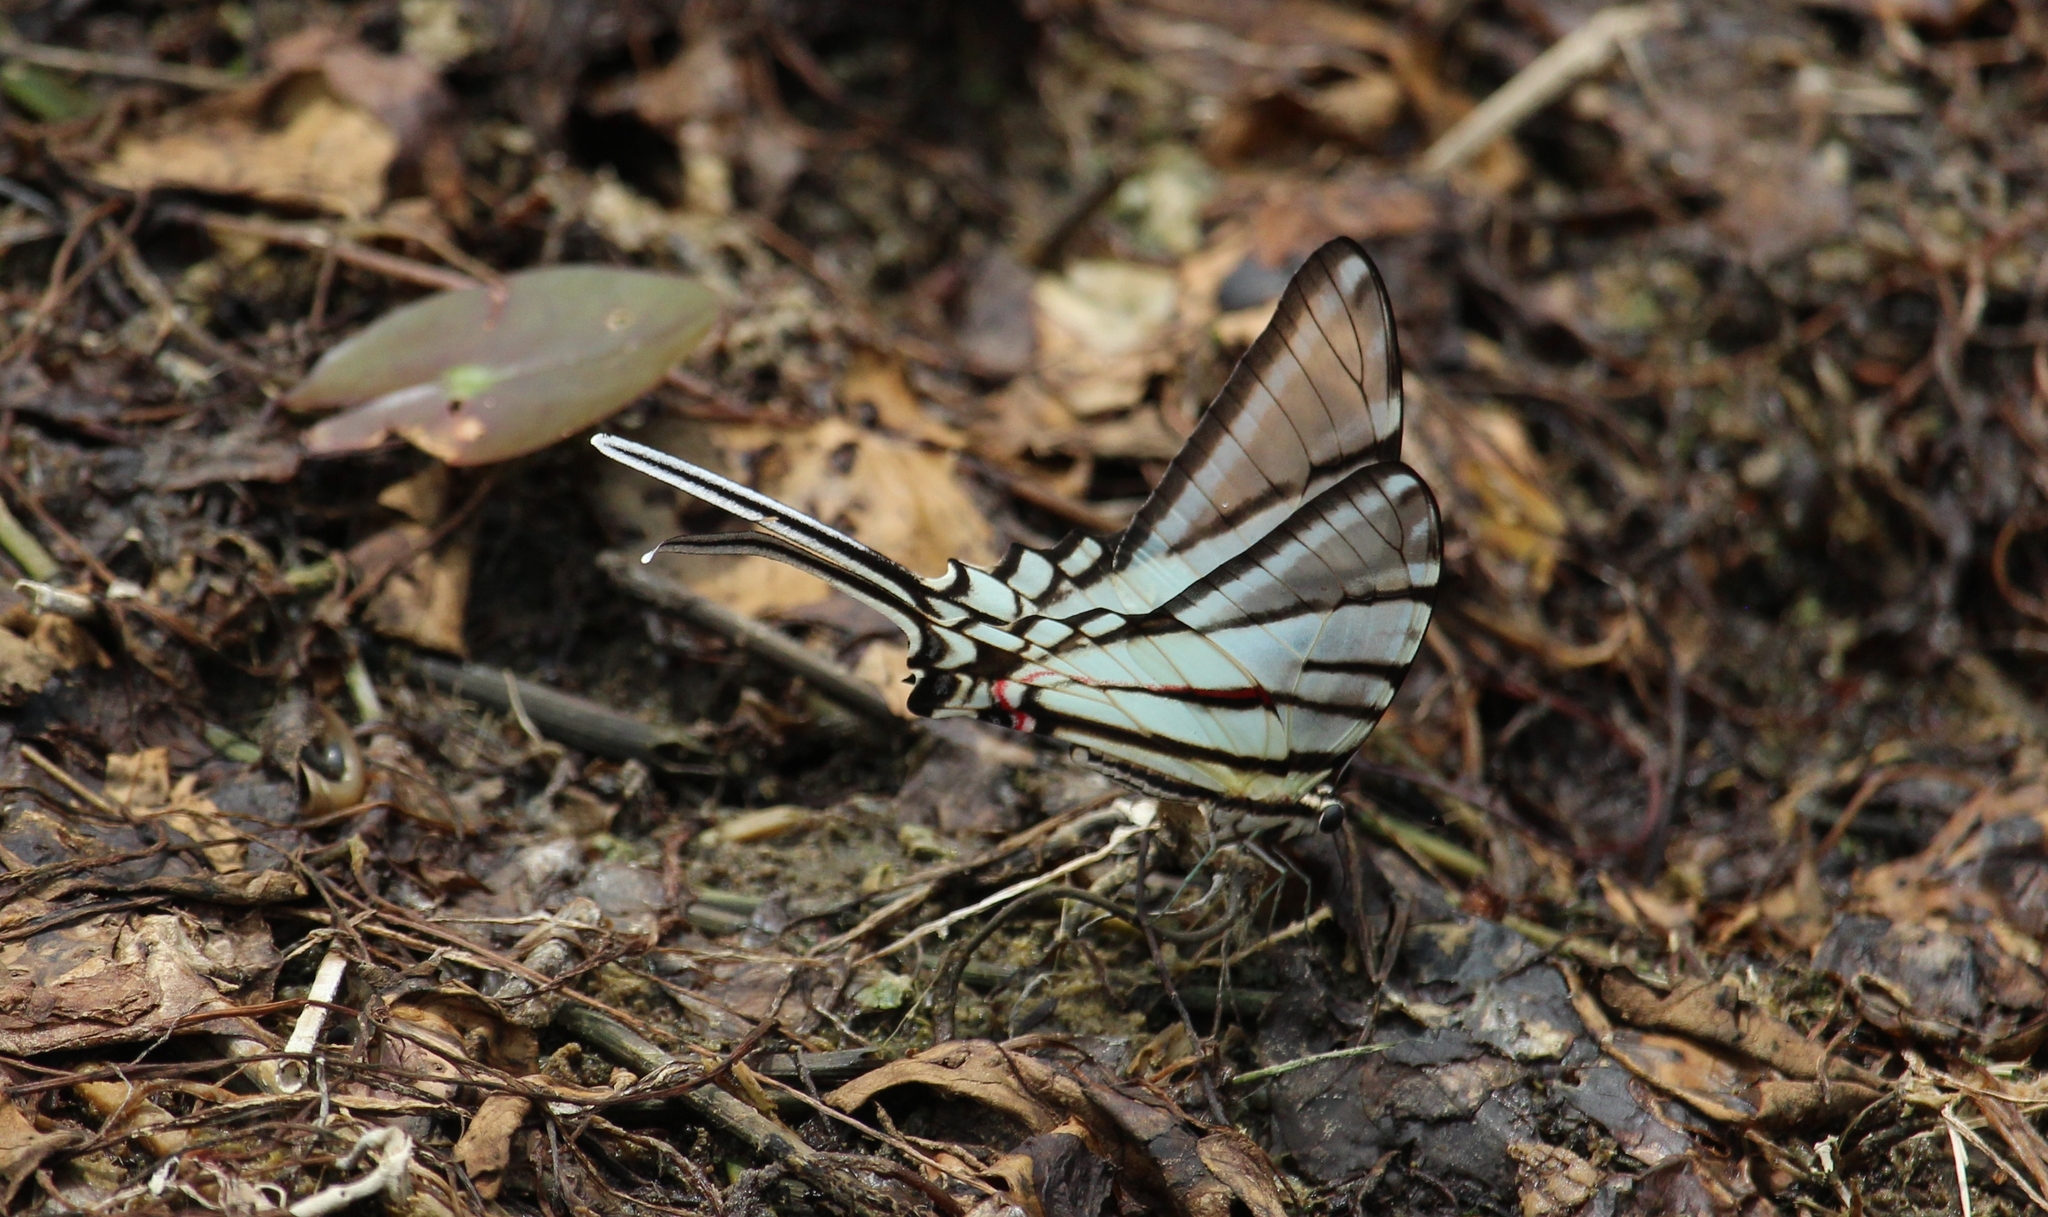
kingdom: Animalia
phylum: Arthropoda
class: Insecta
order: Lepidoptera
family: Papilionidae
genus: Protographium
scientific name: Protographium epidaus
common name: Mexican kite swallowtail
